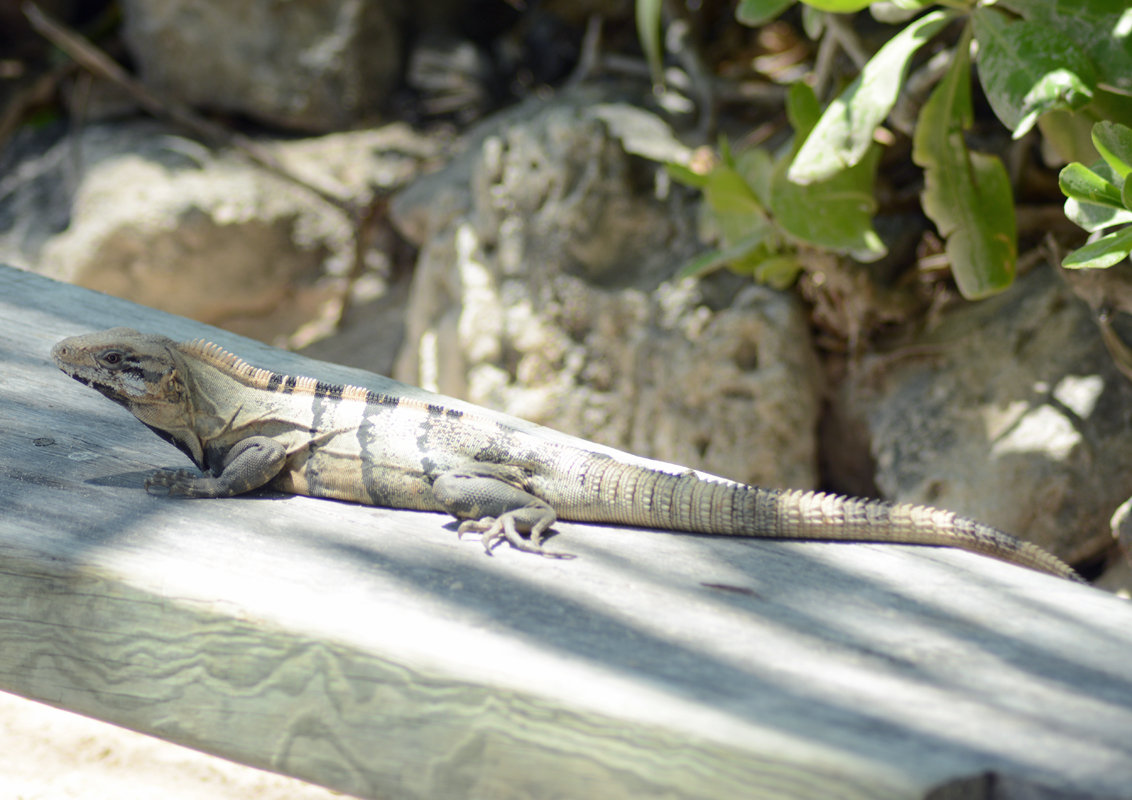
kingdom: Animalia
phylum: Chordata
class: Squamata
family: Iguanidae
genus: Ctenosaura
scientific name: Ctenosaura similis
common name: Black spiny-tailed iguana
